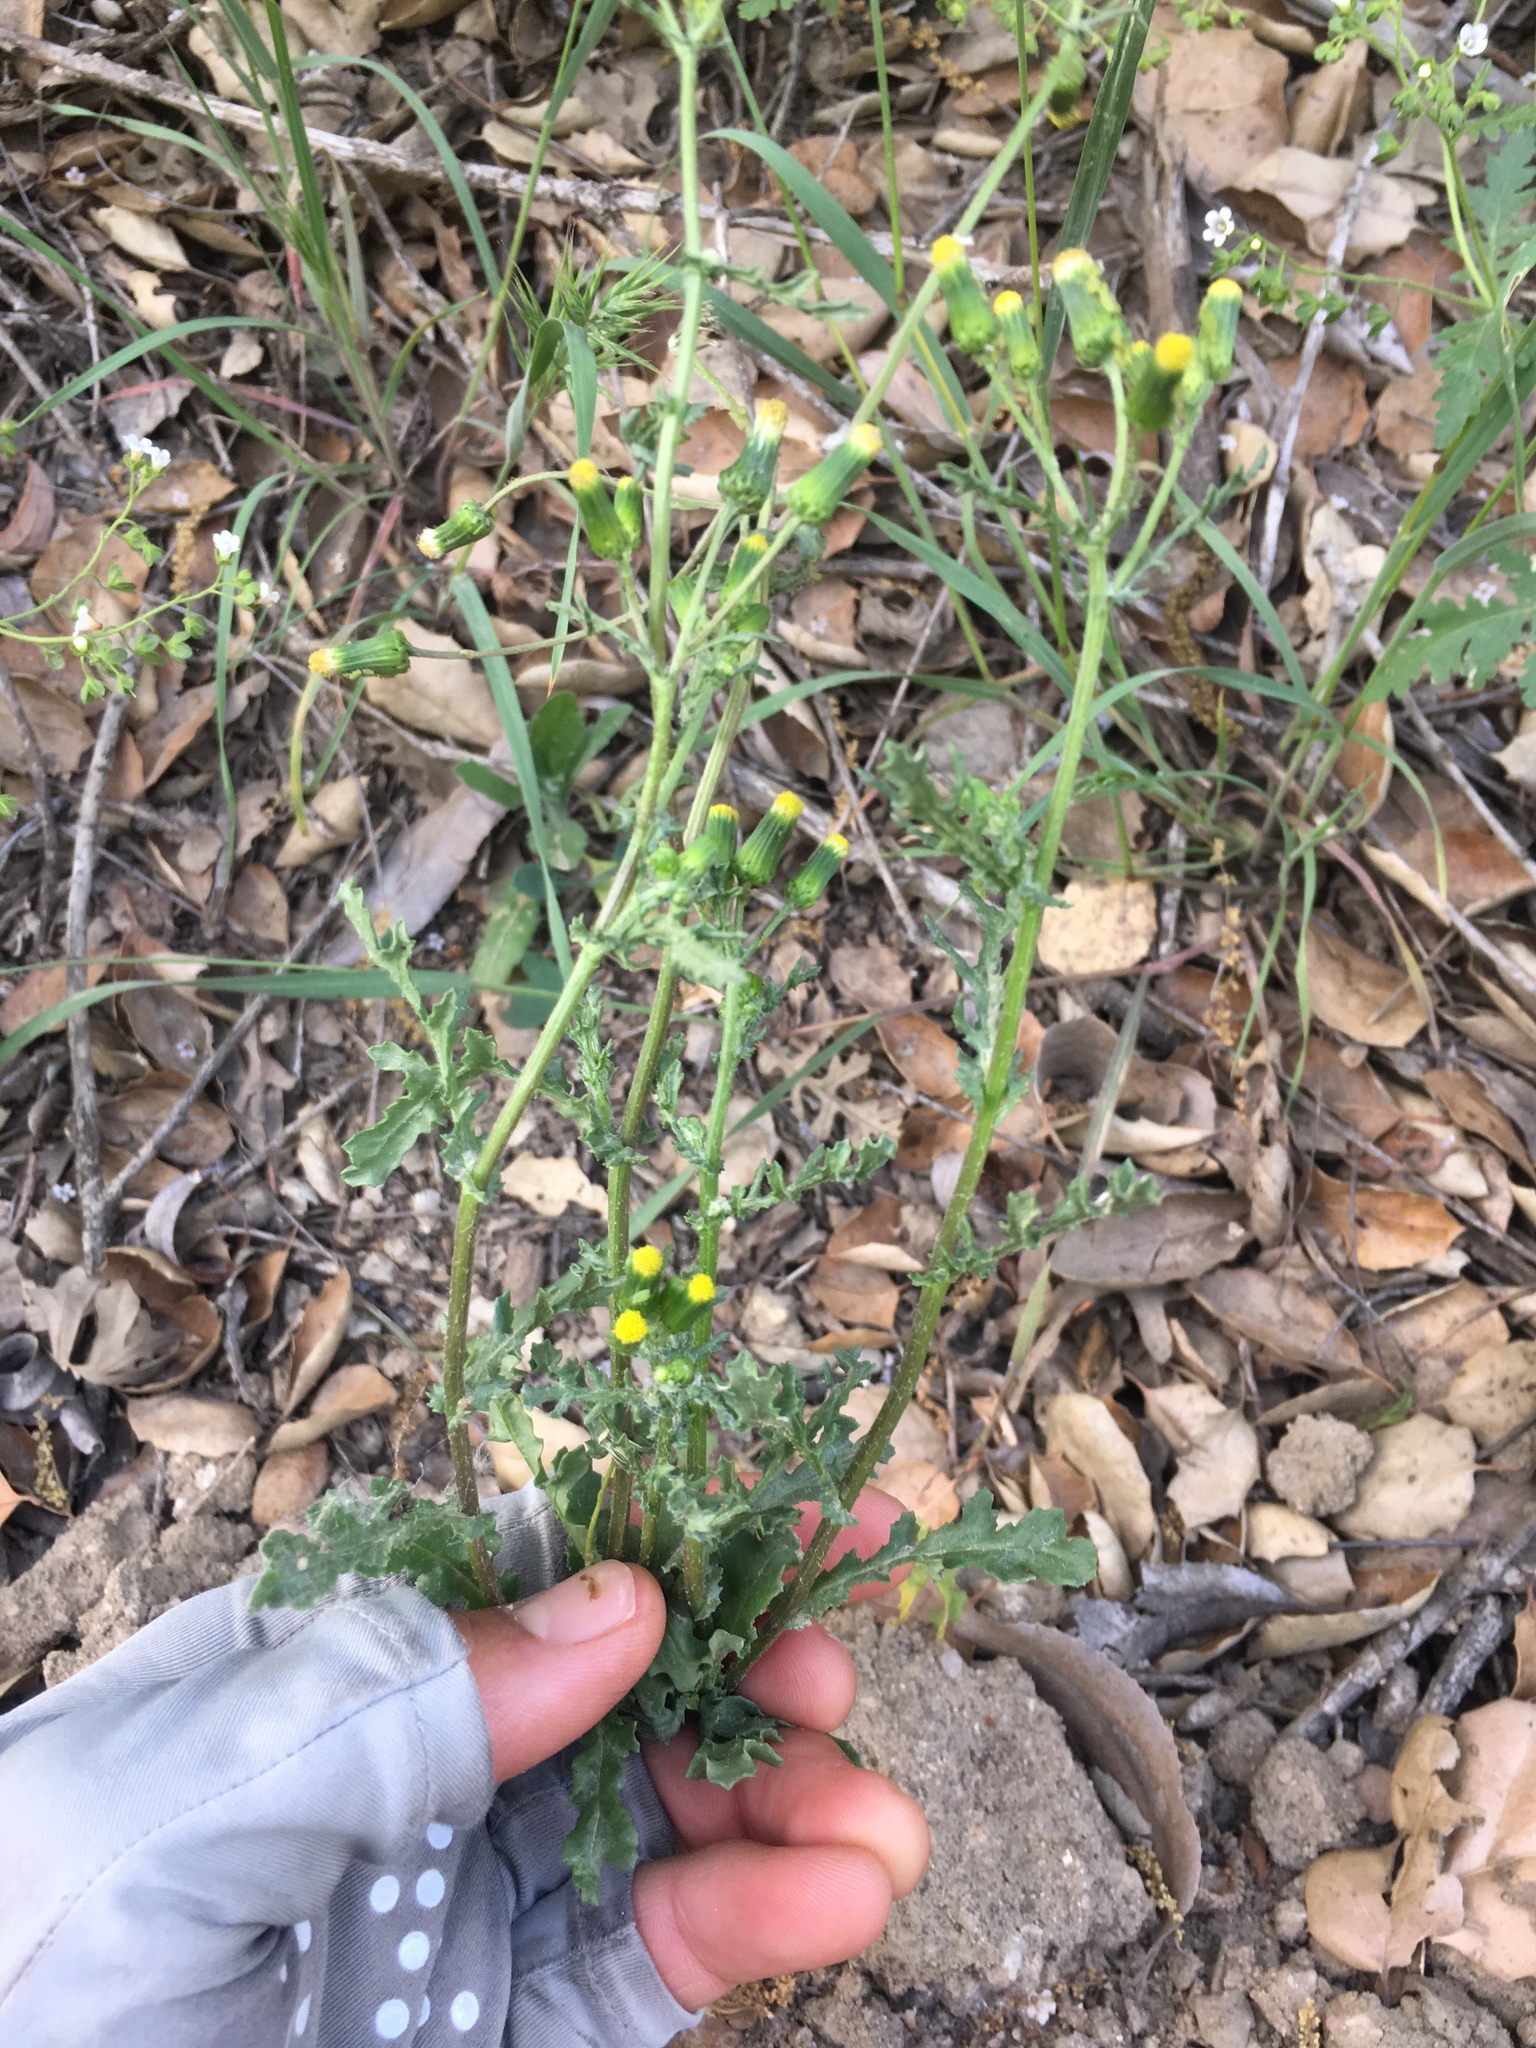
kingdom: Plantae
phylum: Tracheophyta
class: Magnoliopsida
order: Asterales
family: Asteraceae
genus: Senecio
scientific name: Senecio vulgaris
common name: Old-man-in-the-spring
